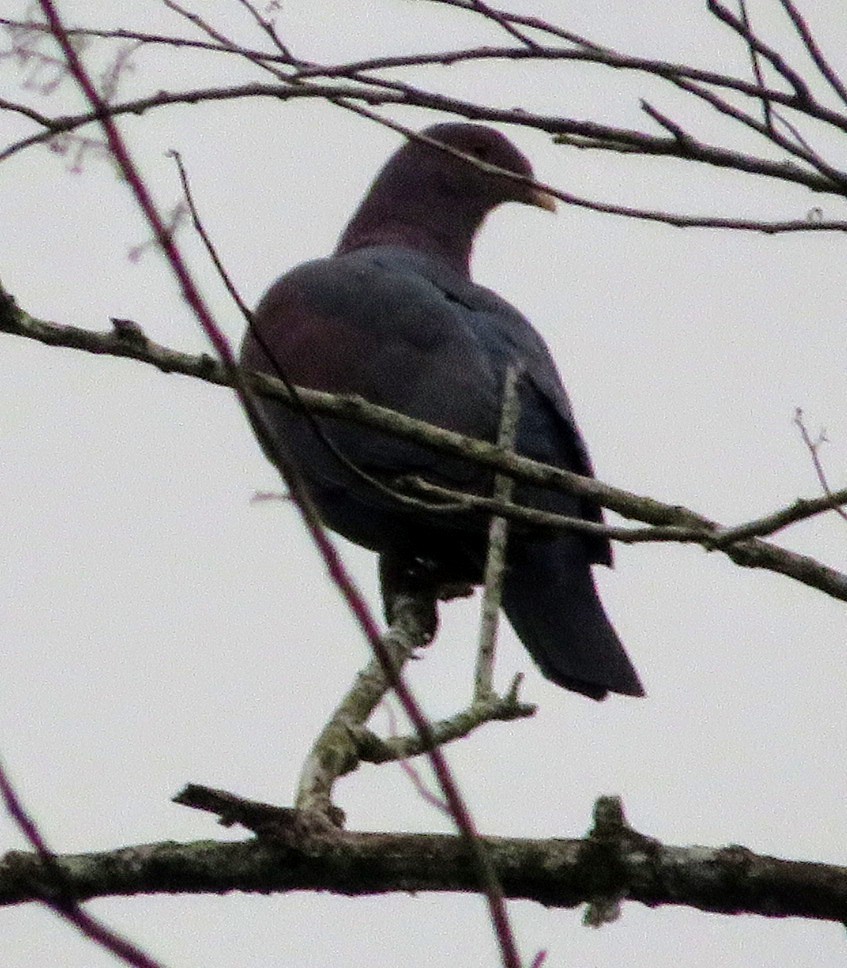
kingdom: Animalia
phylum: Chordata
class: Aves
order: Columbiformes
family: Columbidae
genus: Patagioenas
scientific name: Patagioenas flavirostris
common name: Red-billed pigeon
